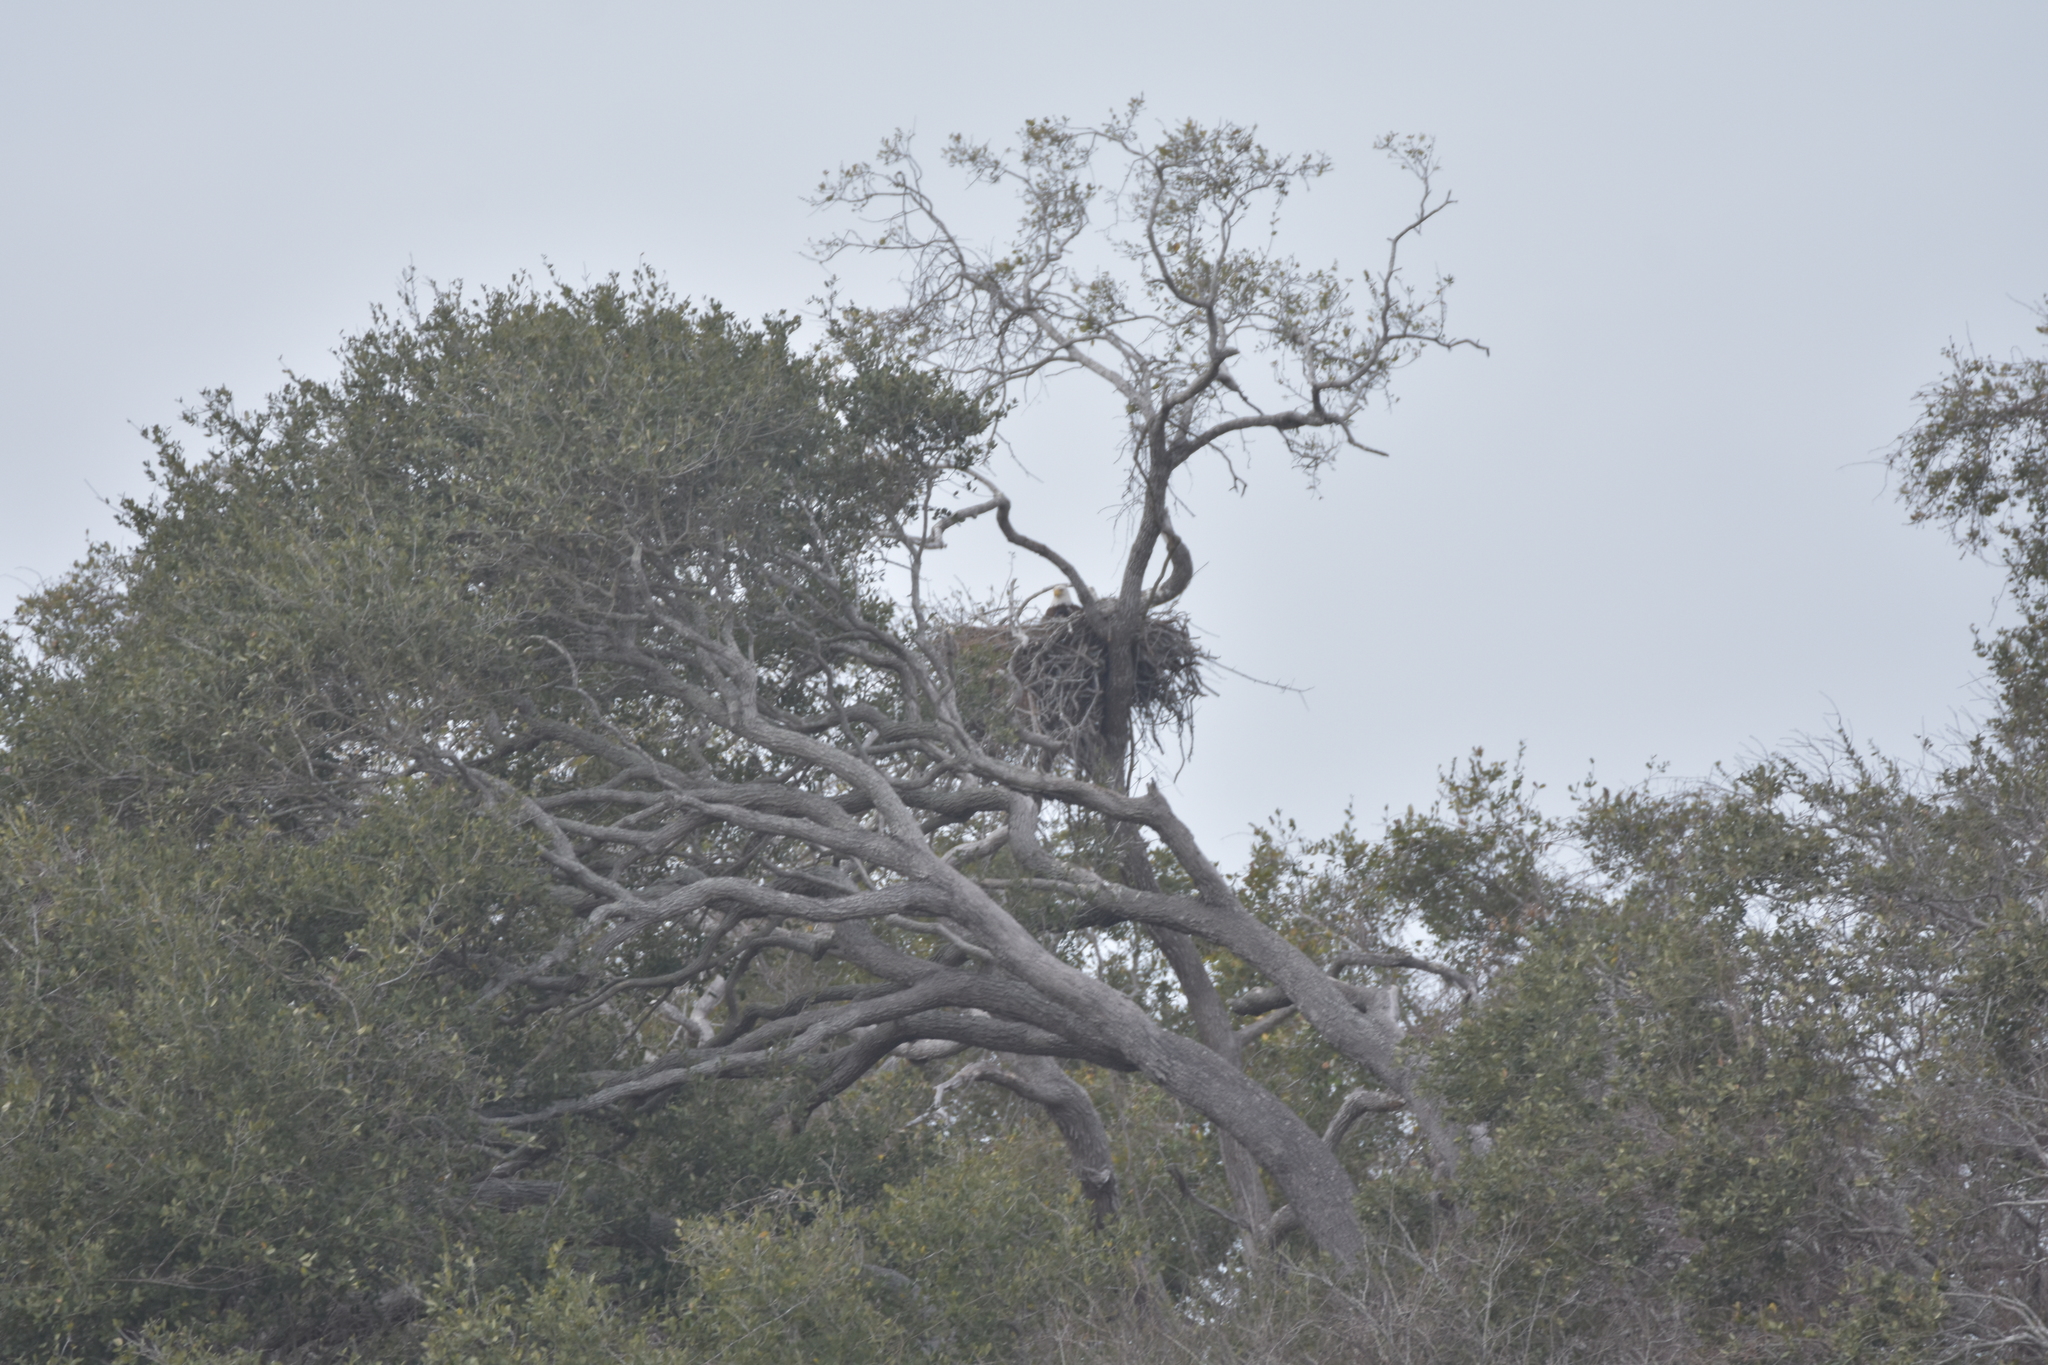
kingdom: Animalia
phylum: Chordata
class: Aves
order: Accipitriformes
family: Accipitridae
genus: Haliaeetus
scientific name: Haliaeetus leucocephalus
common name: Bald eagle
